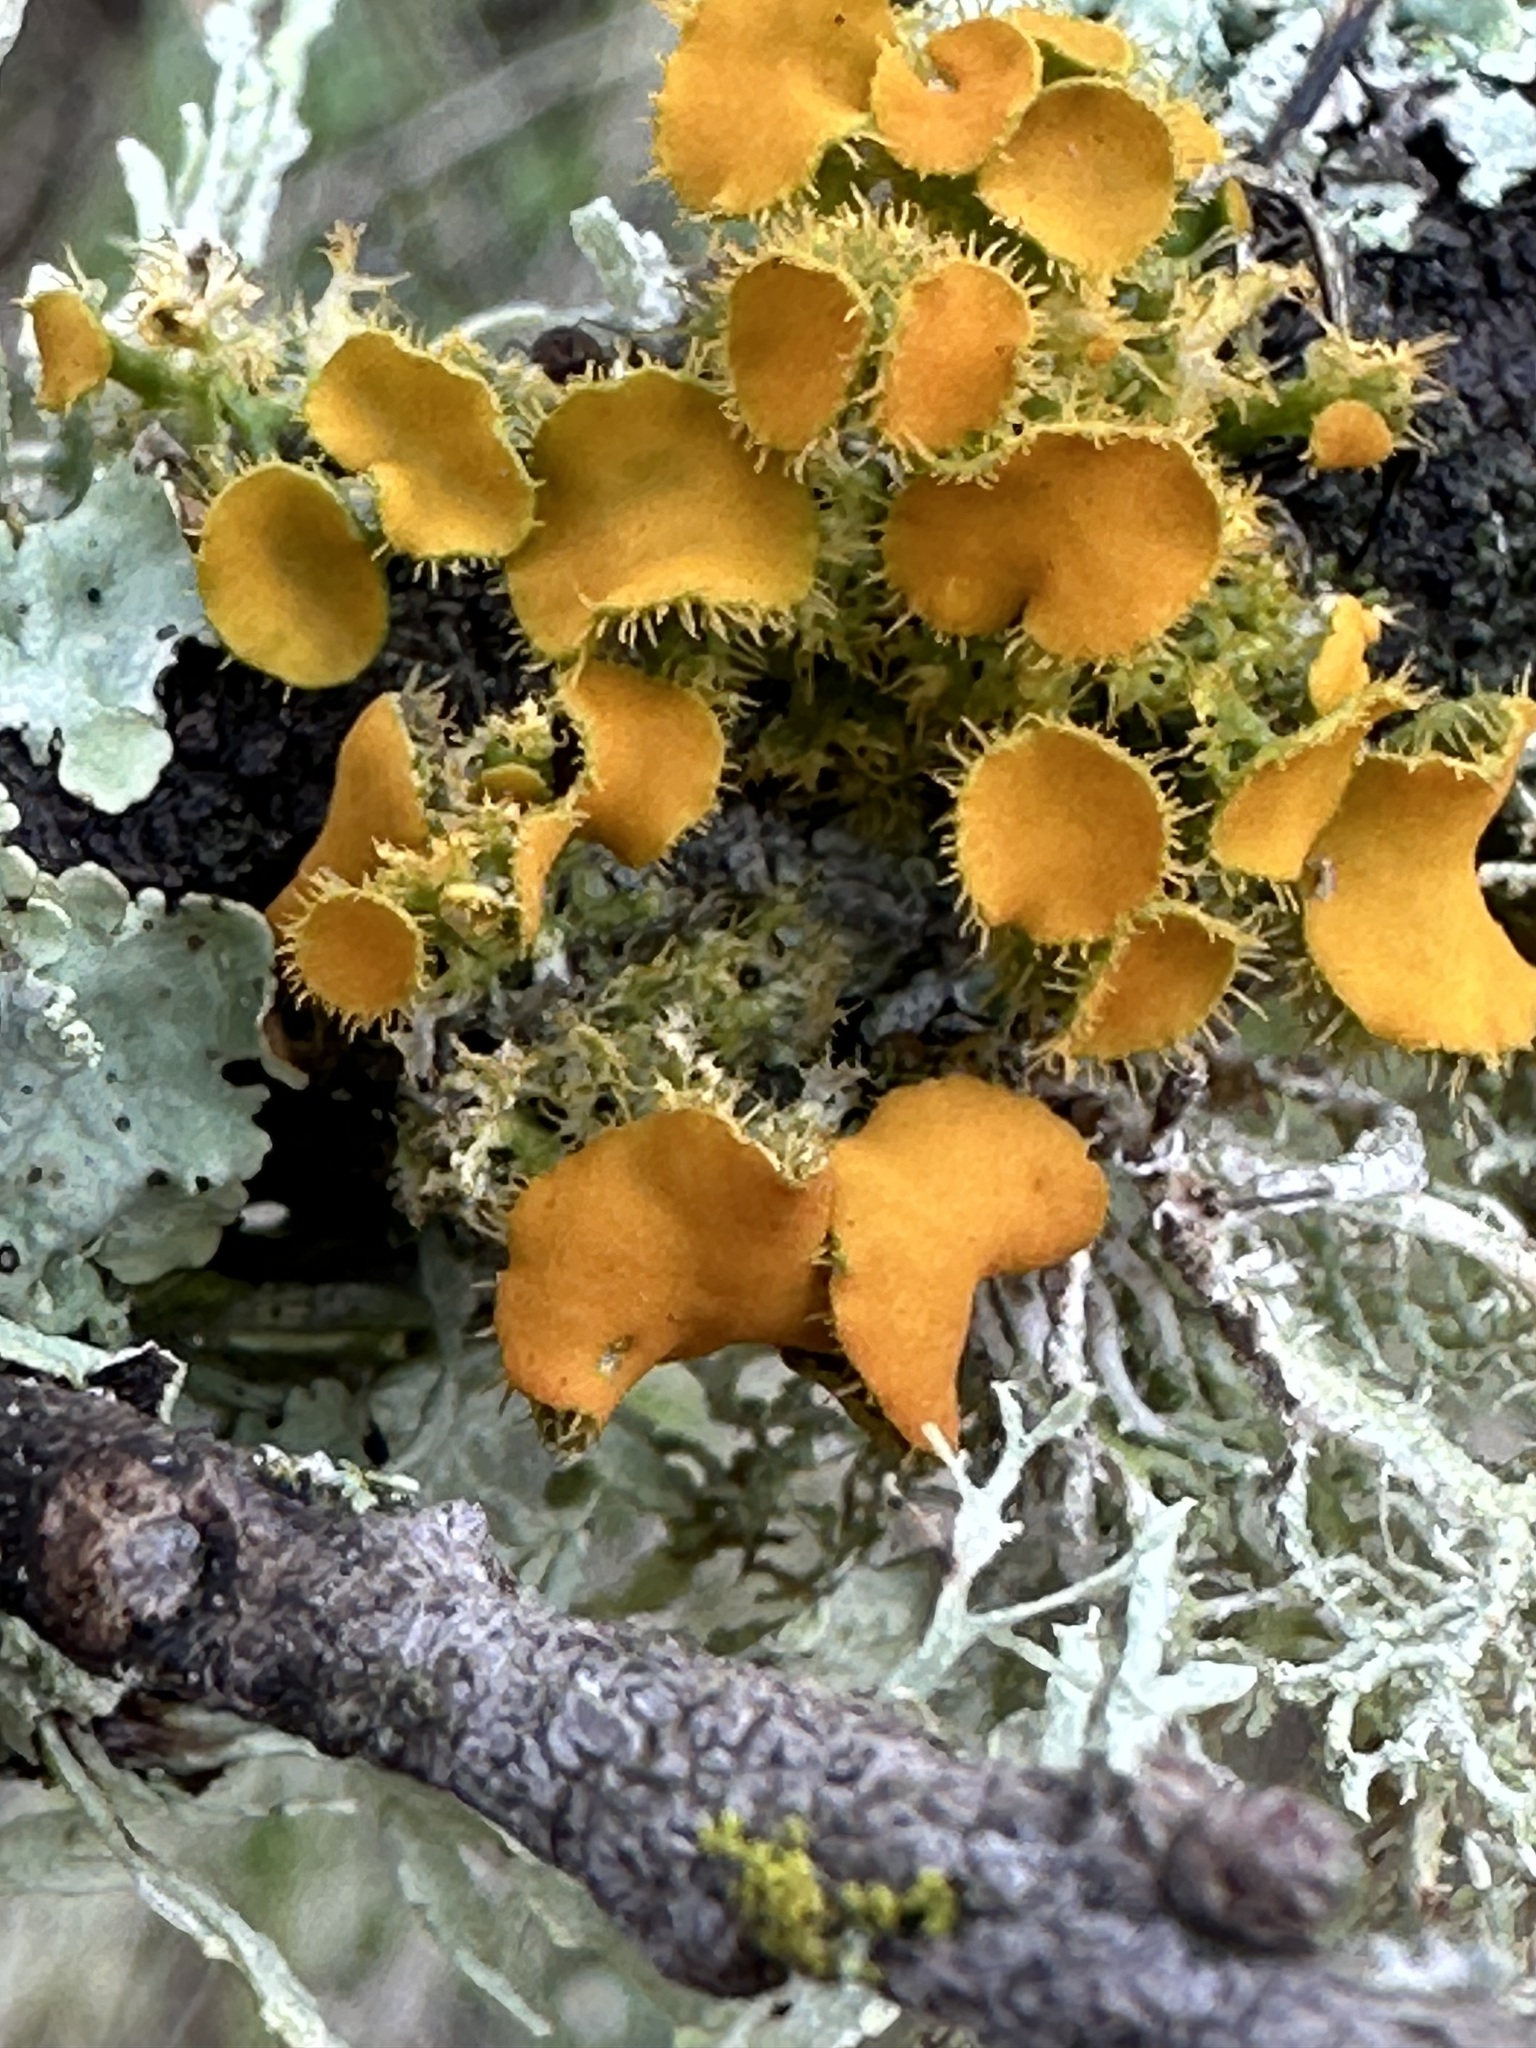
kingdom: Fungi
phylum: Ascomycota
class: Lecanoromycetes
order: Teloschistales
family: Teloschistaceae
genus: Niorma
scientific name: Niorma chrysophthalma
